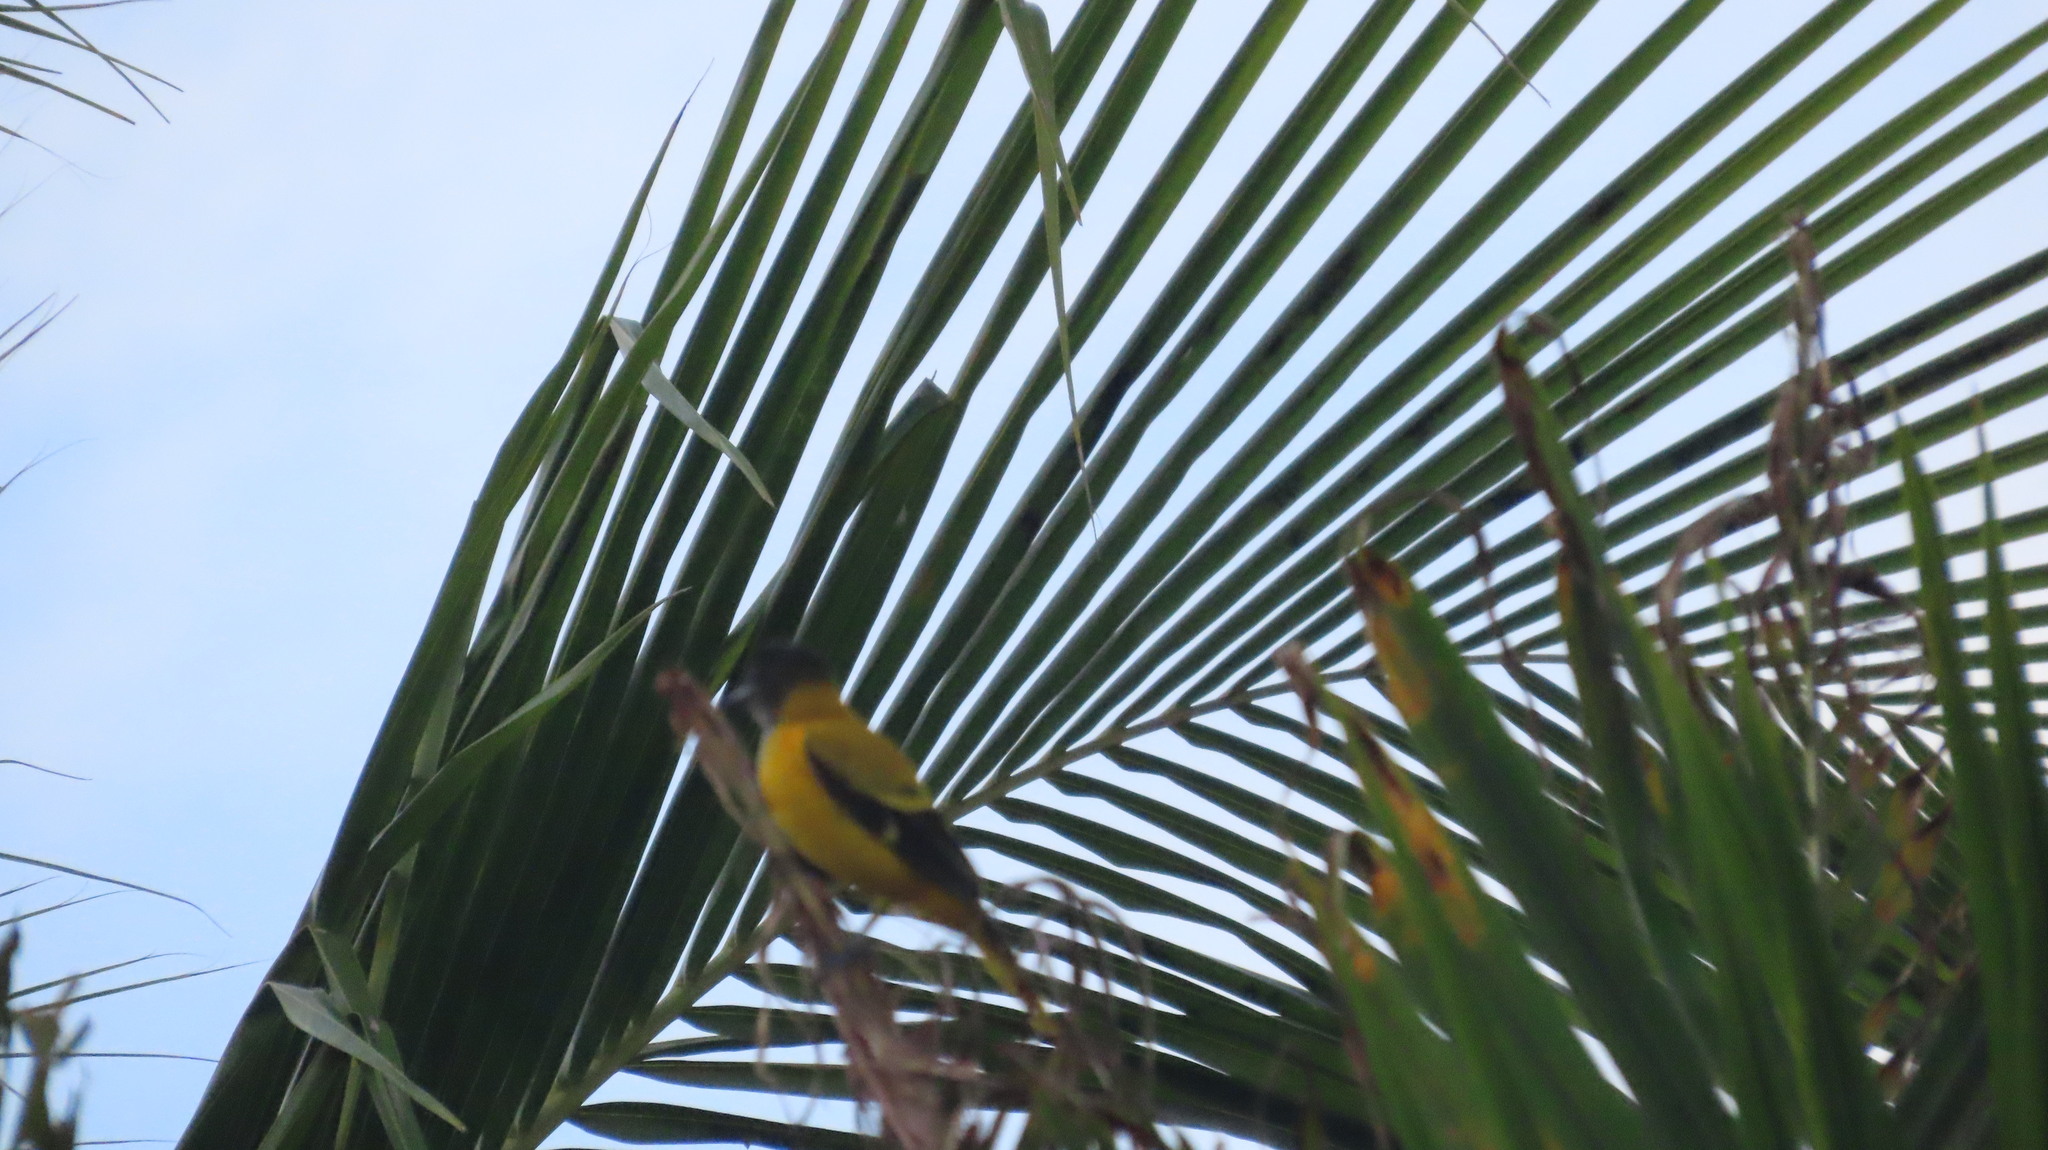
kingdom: Animalia
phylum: Chordata
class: Aves
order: Passeriformes
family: Oriolidae
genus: Oriolus
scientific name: Oriolus xanthornus
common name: Black-hooded oriole
